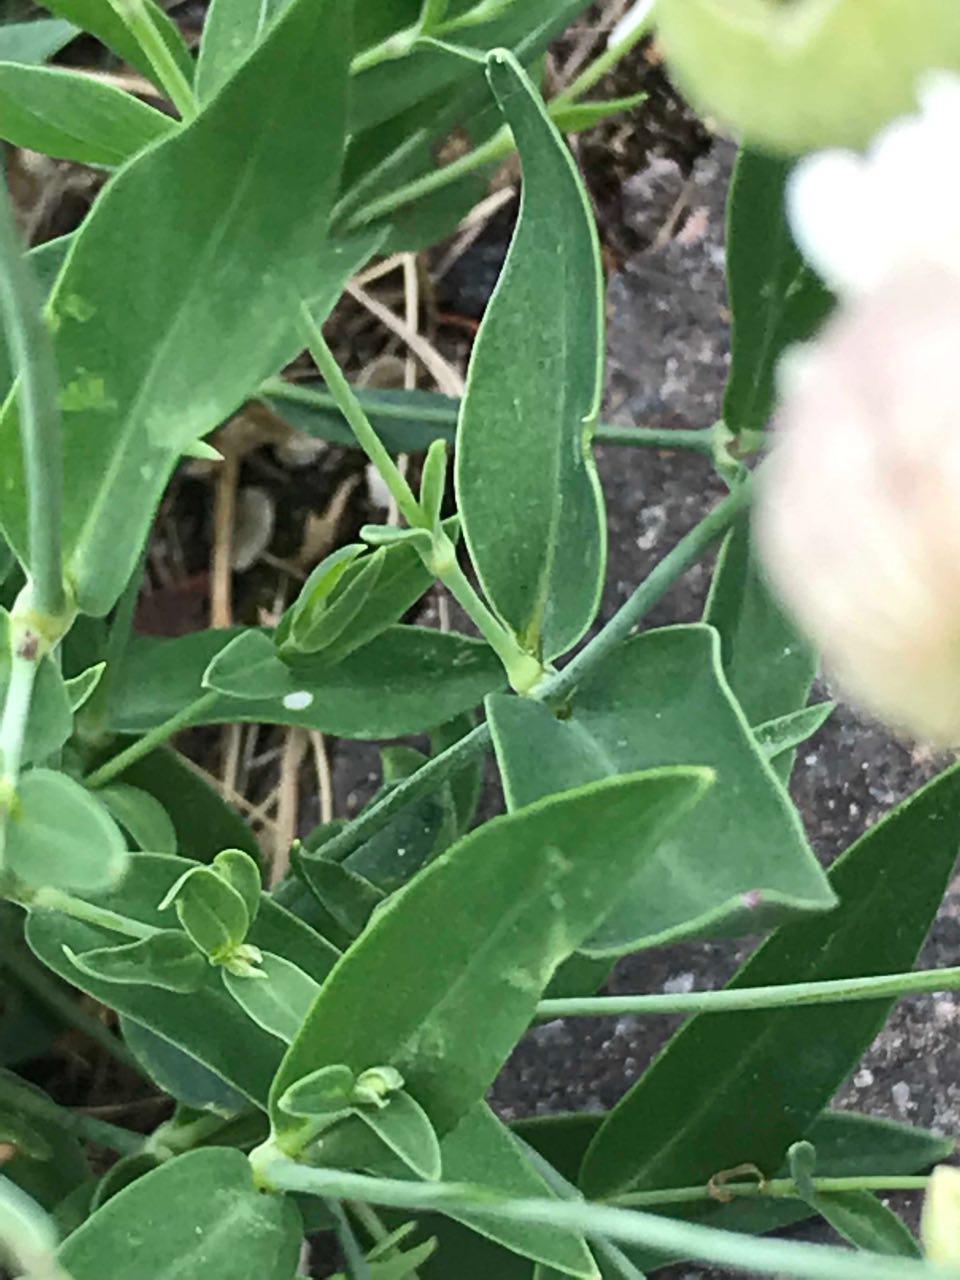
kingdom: Plantae
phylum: Tracheophyta
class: Magnoliopsida
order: Caryophyllales
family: Caryophyllaceae
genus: Silene
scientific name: Silene vulgaris
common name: Bladder campion
